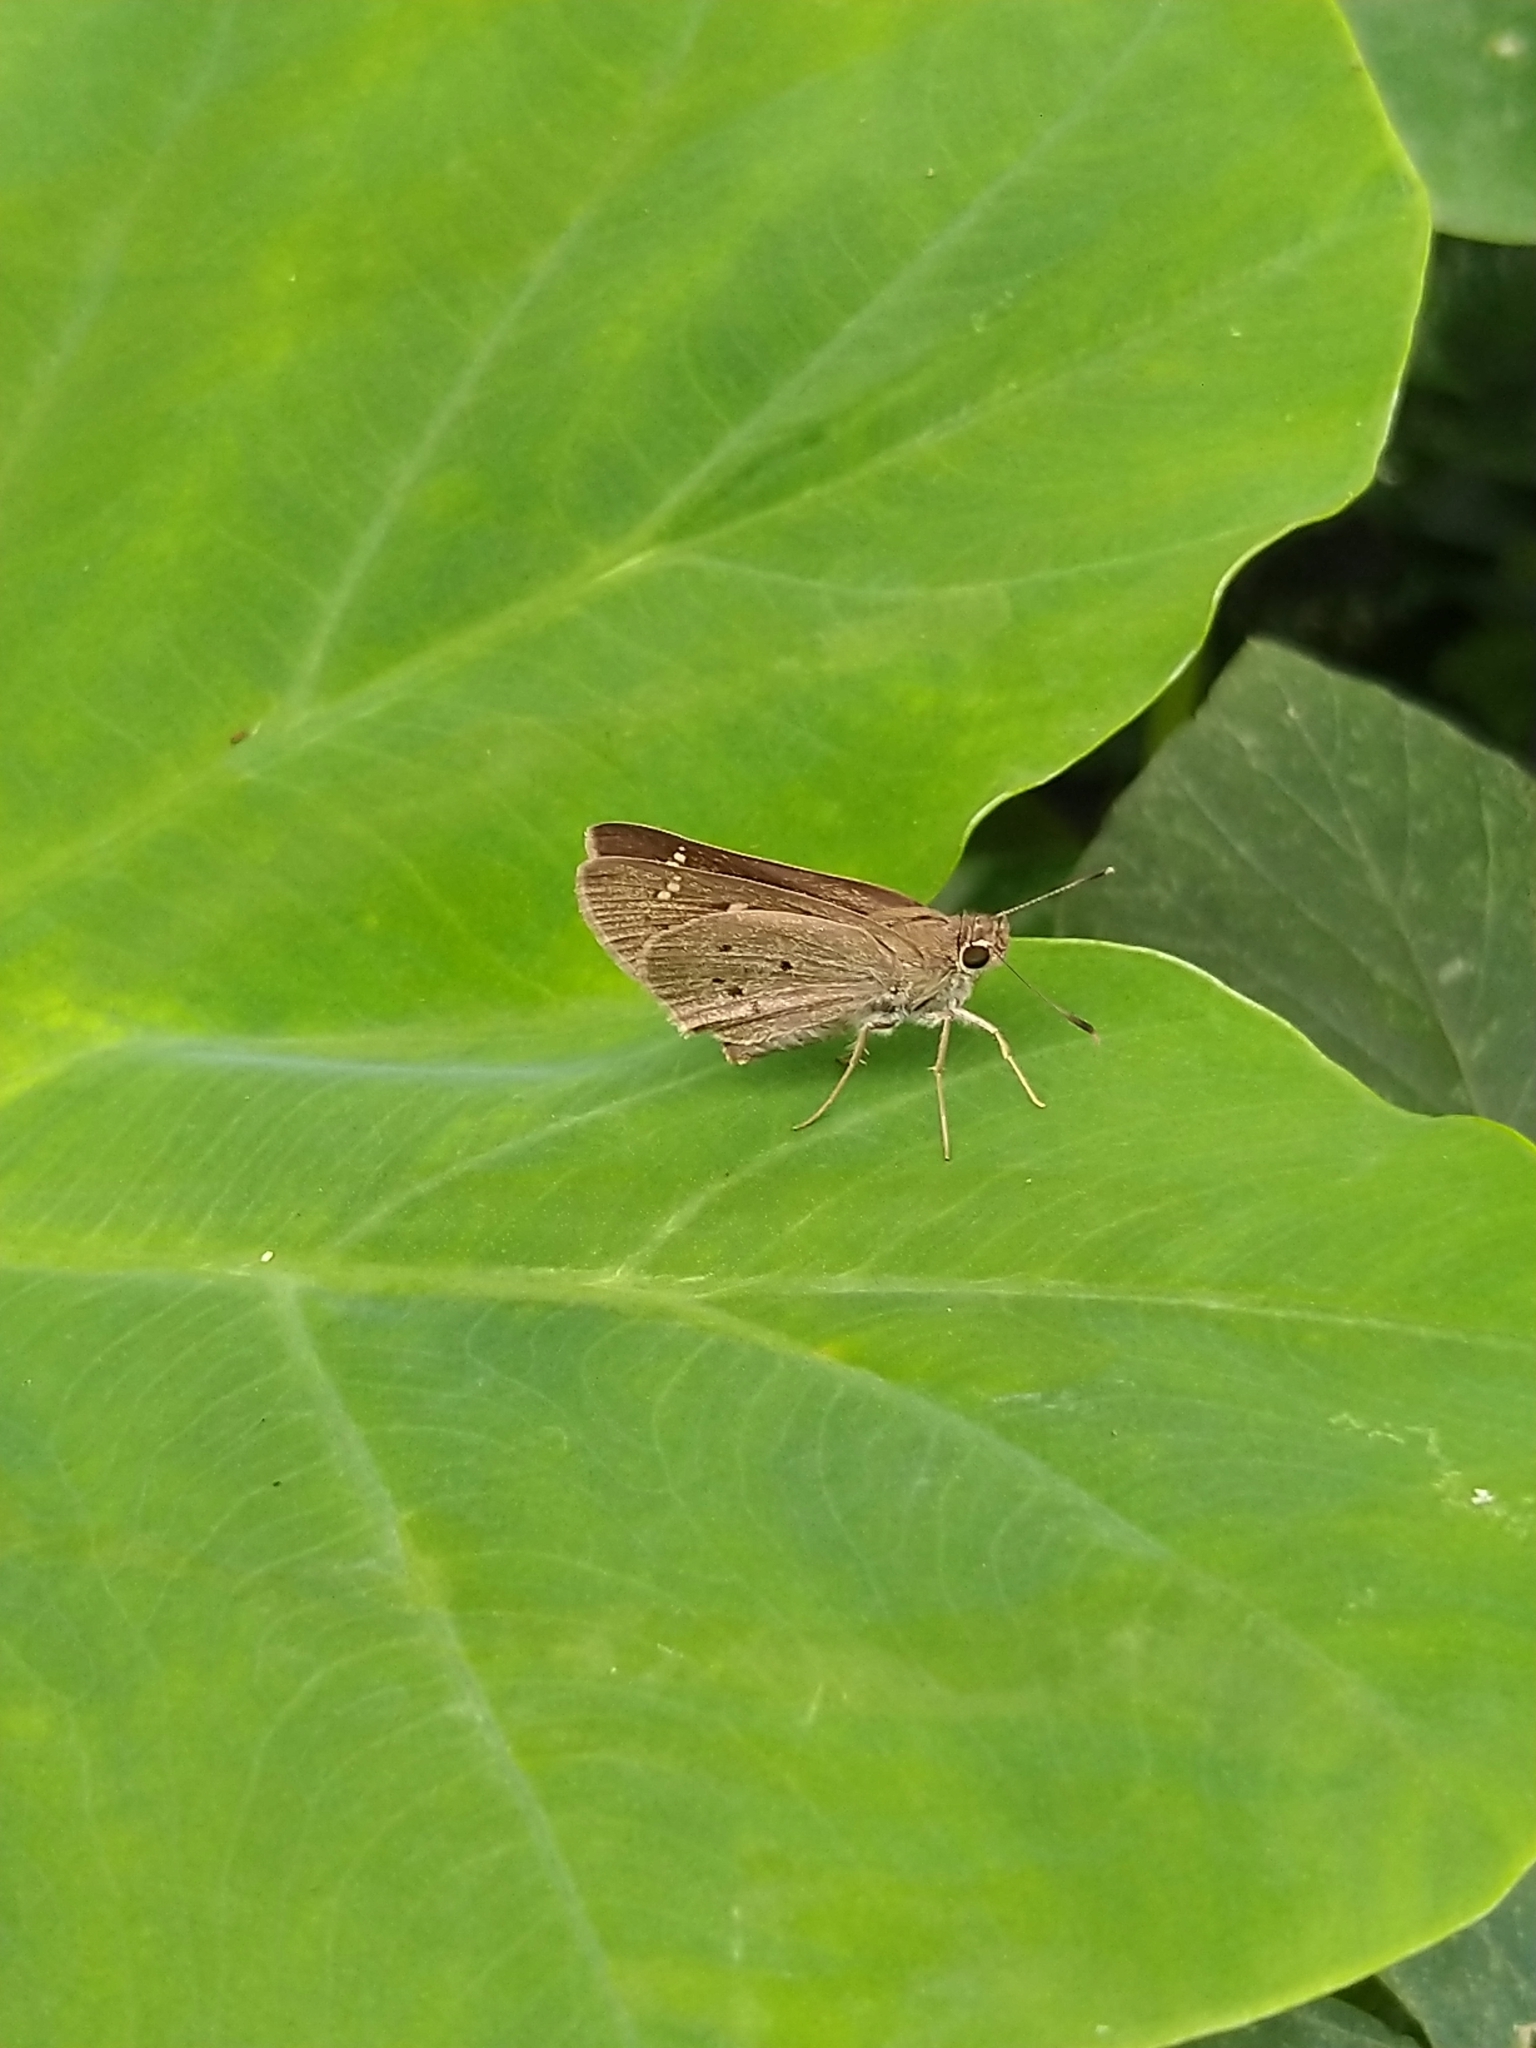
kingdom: Animalia
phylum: Arthropoda
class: Insecta
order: Lepidoptera
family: Hesperiidae
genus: Suastus
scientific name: Suastus gremius
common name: Indian palm bob
